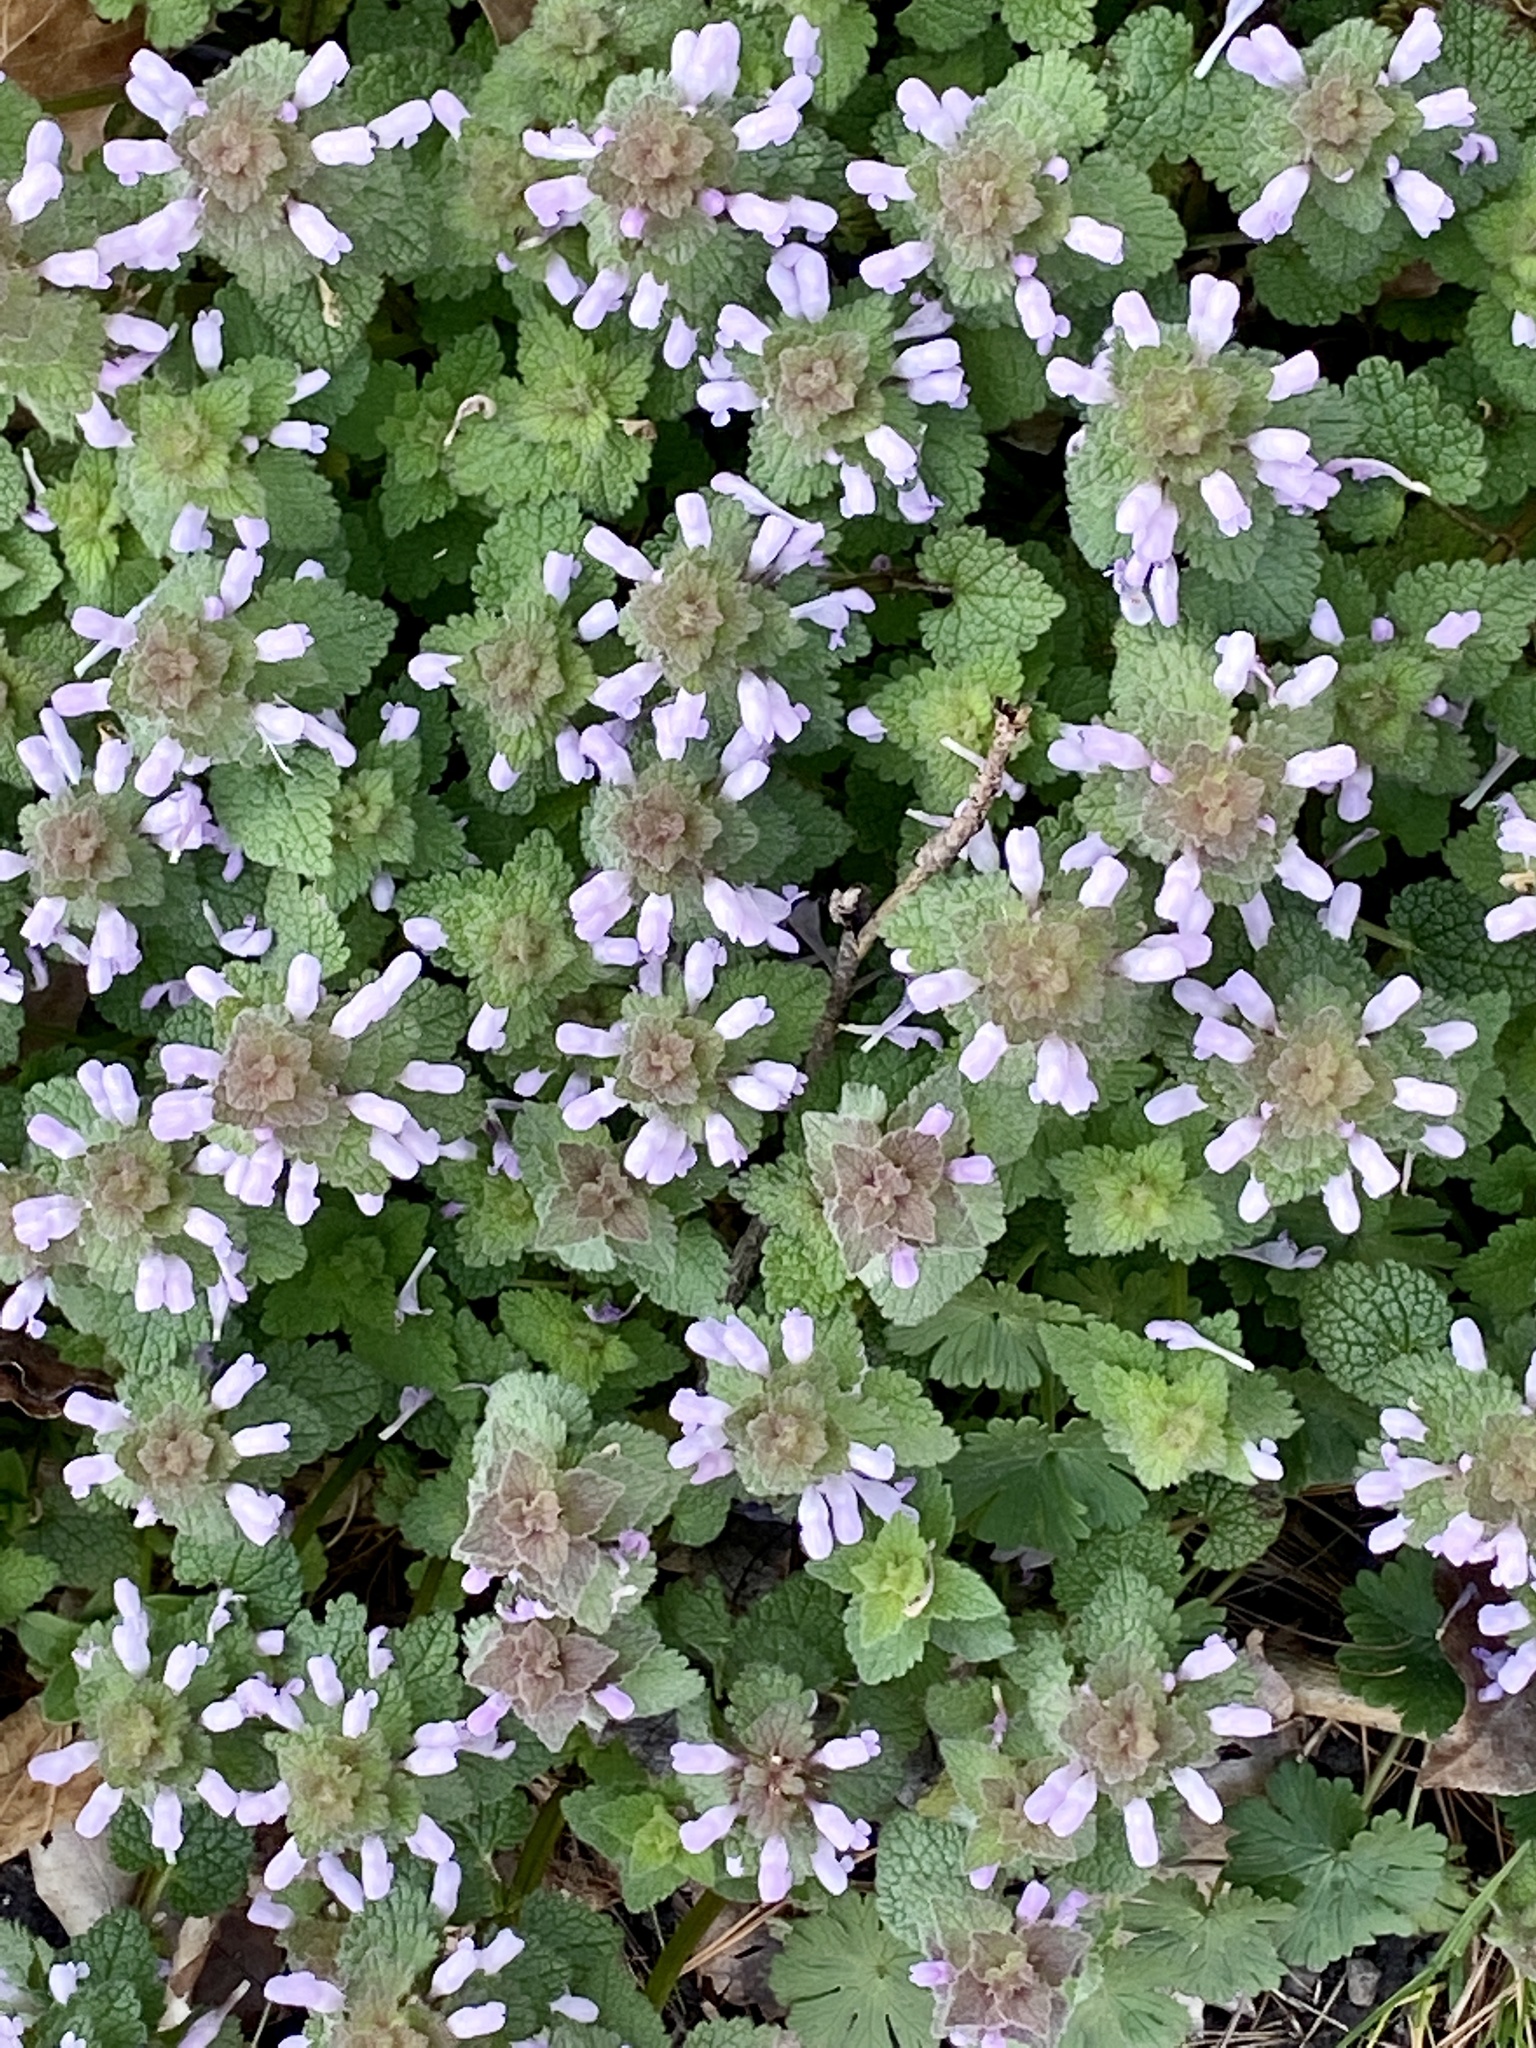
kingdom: Plantae
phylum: Tracheophyta
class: Magnoliopsida
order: Lamiales
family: Lamiaceae
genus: Lamium
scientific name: Lamium purpureum
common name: Red dead-nettle
